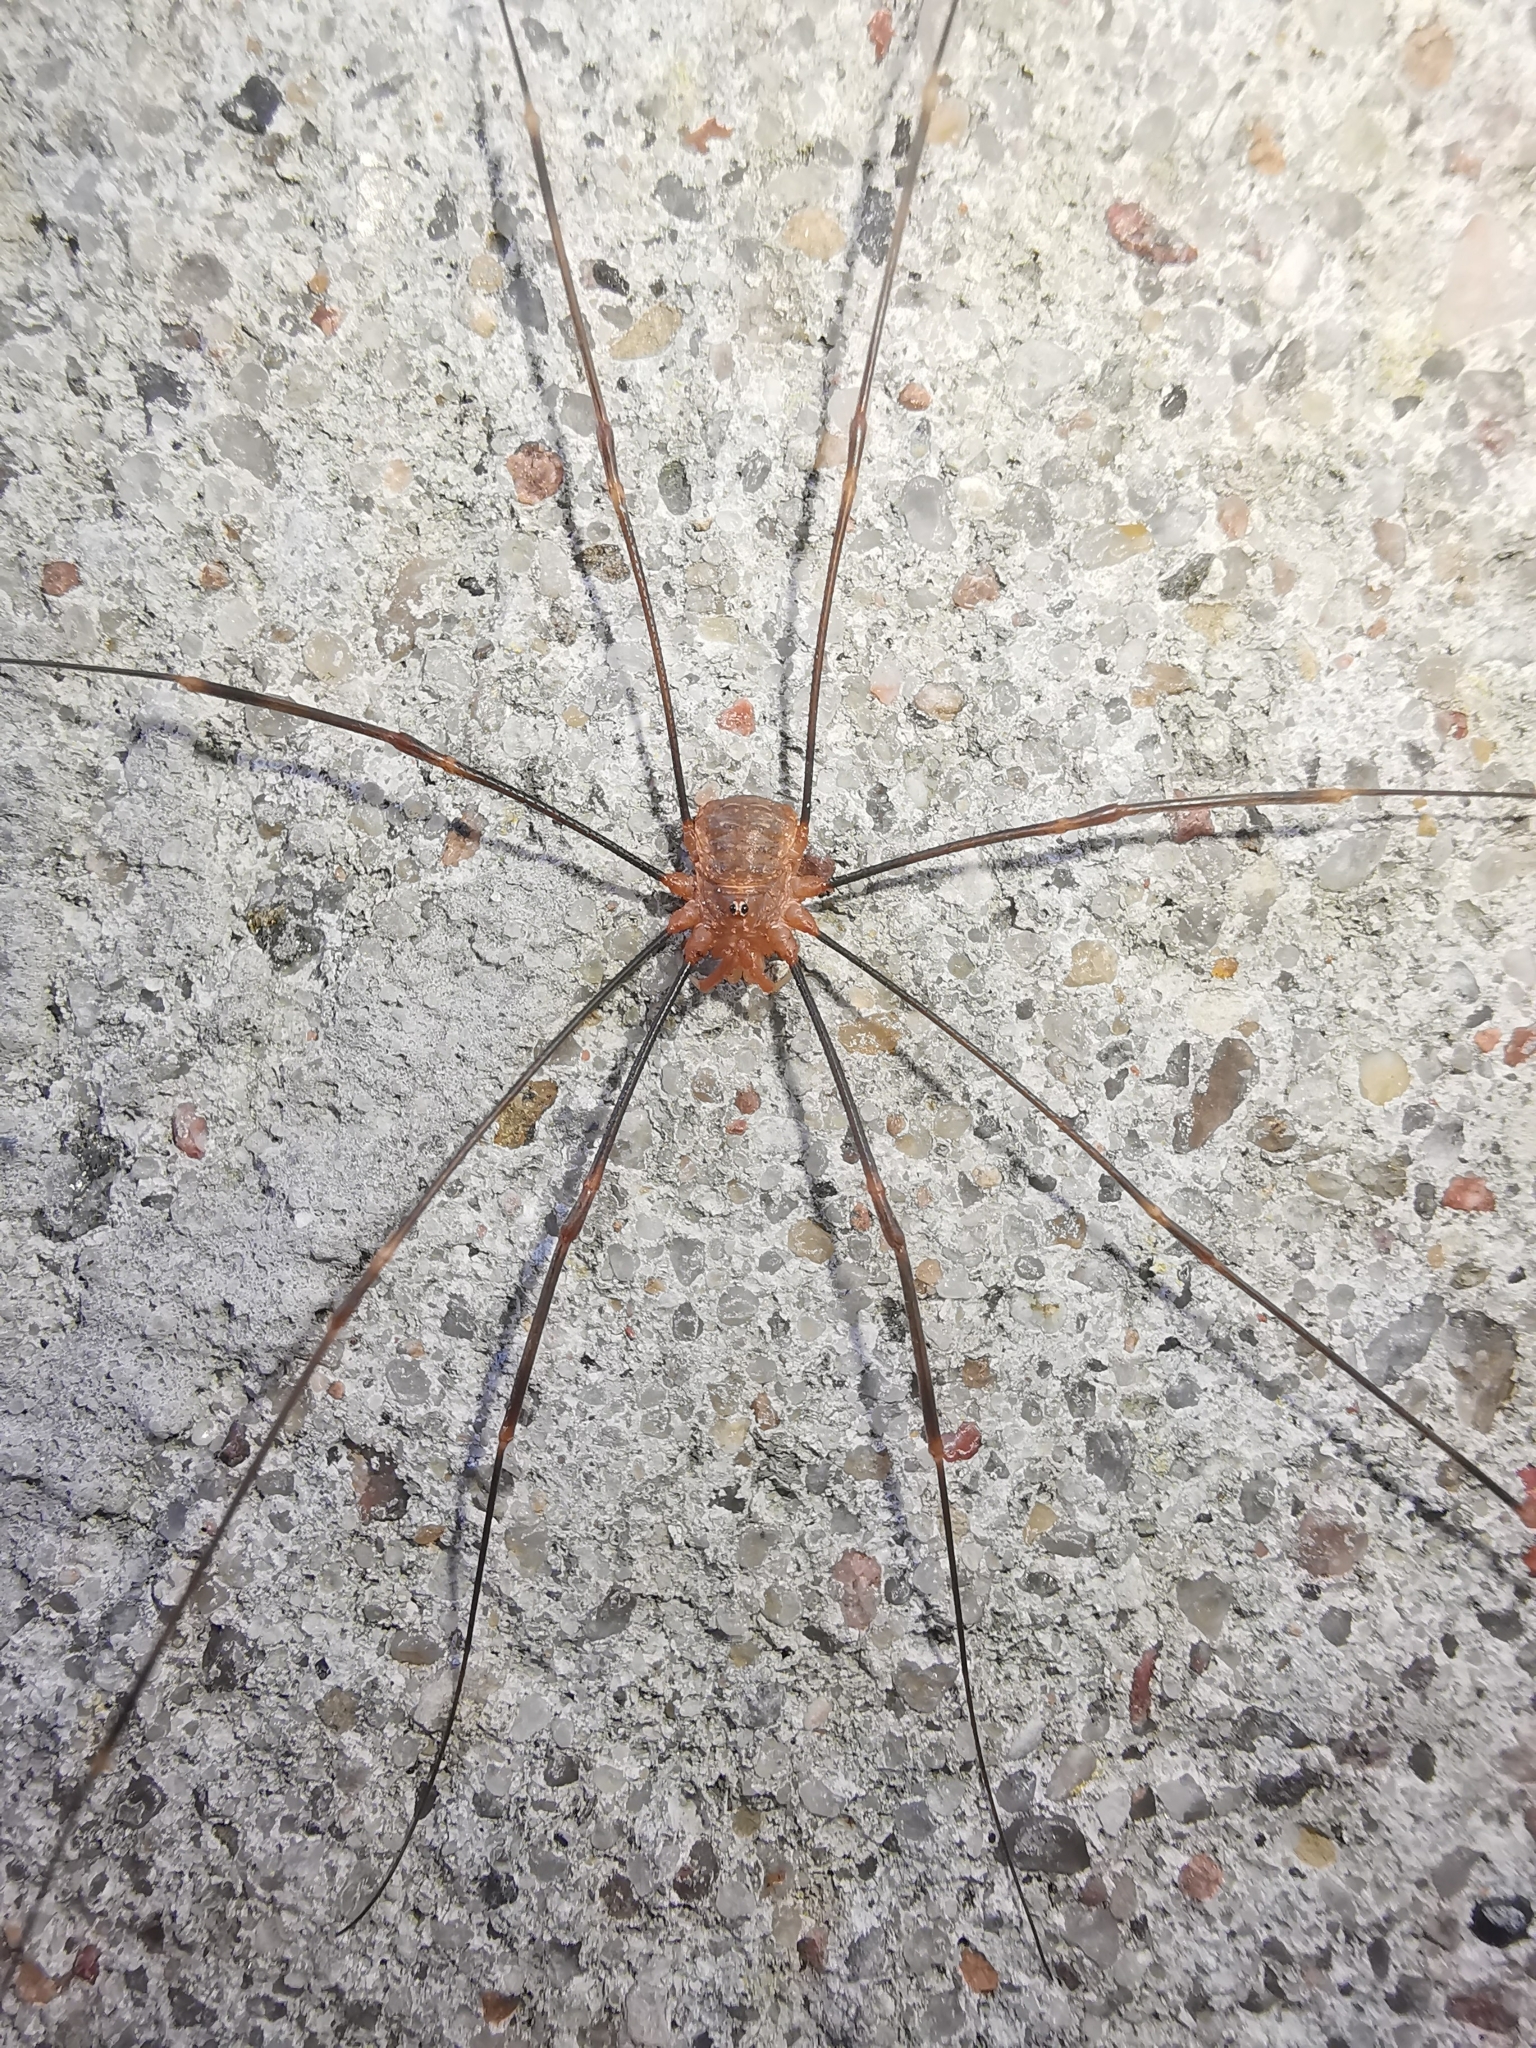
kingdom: Animalia
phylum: Arthropoda
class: Arachnida
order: Opiliones
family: Phalangiidae
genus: Opilio
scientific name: Opilio canestrinii
